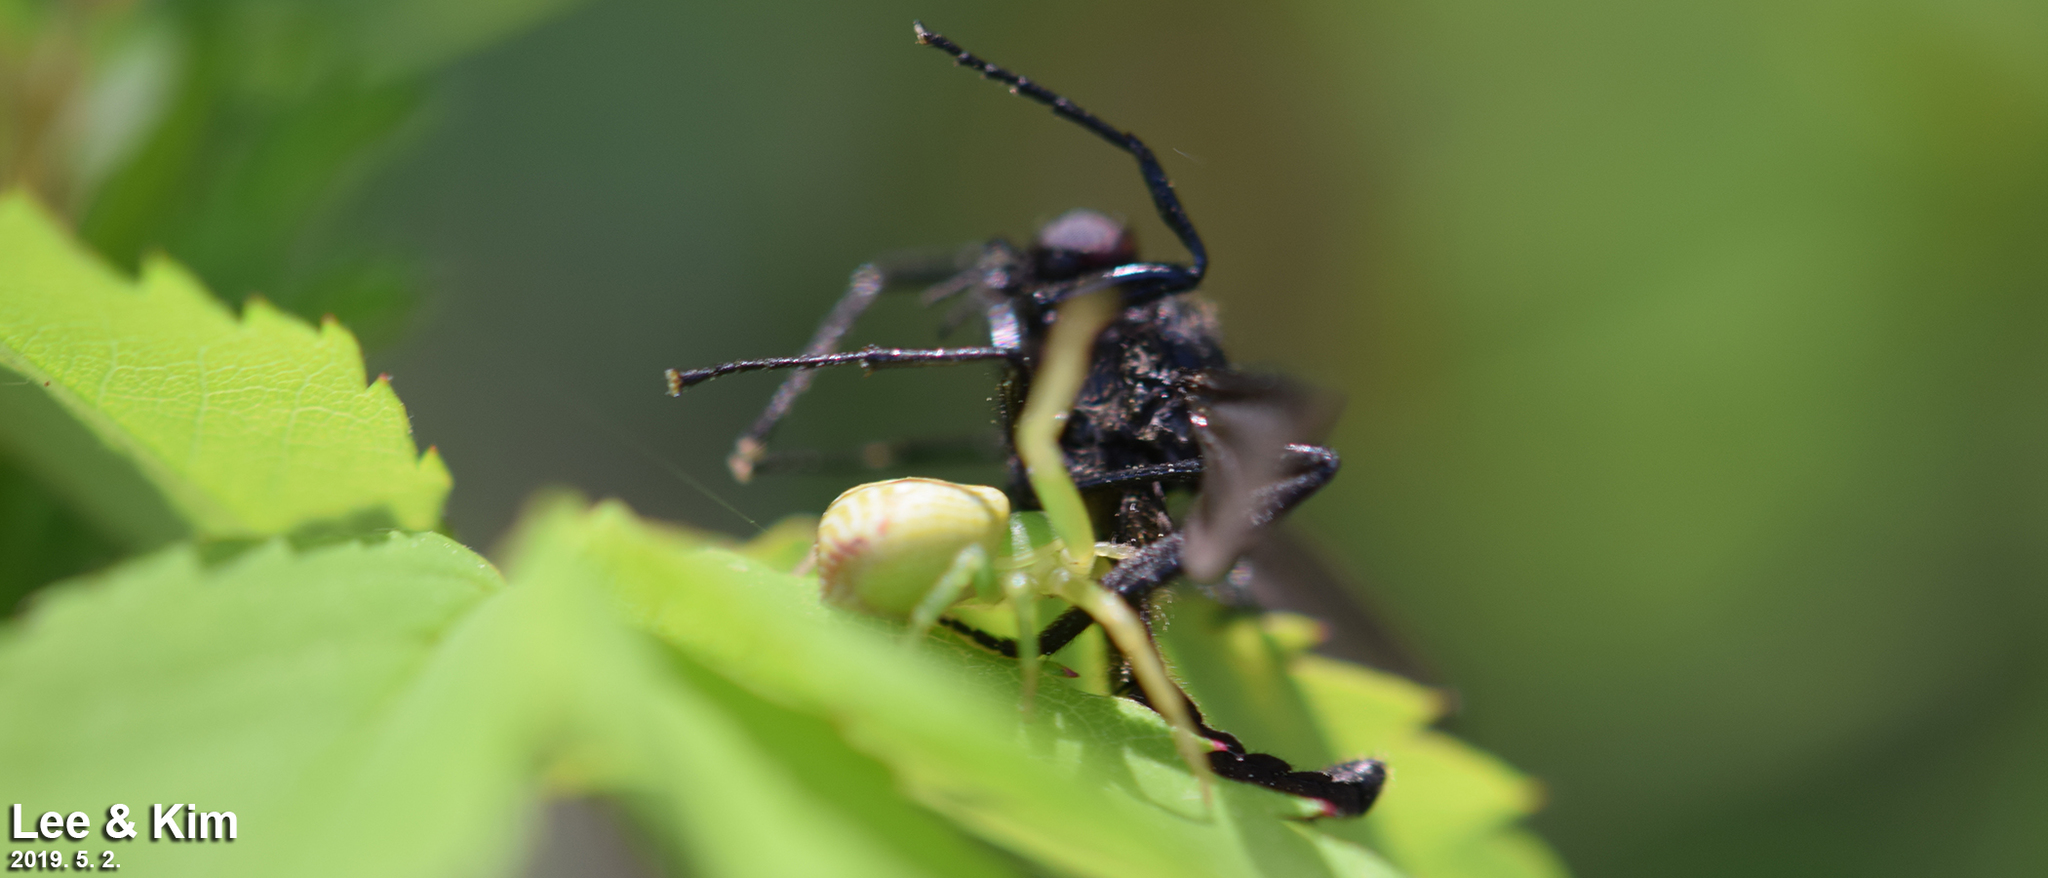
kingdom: Animalia
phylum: Arthropoda
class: Arachnida
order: Araneae
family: Thomisidae
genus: Ebrechtella
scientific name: Ebrechtella tricuspidata
